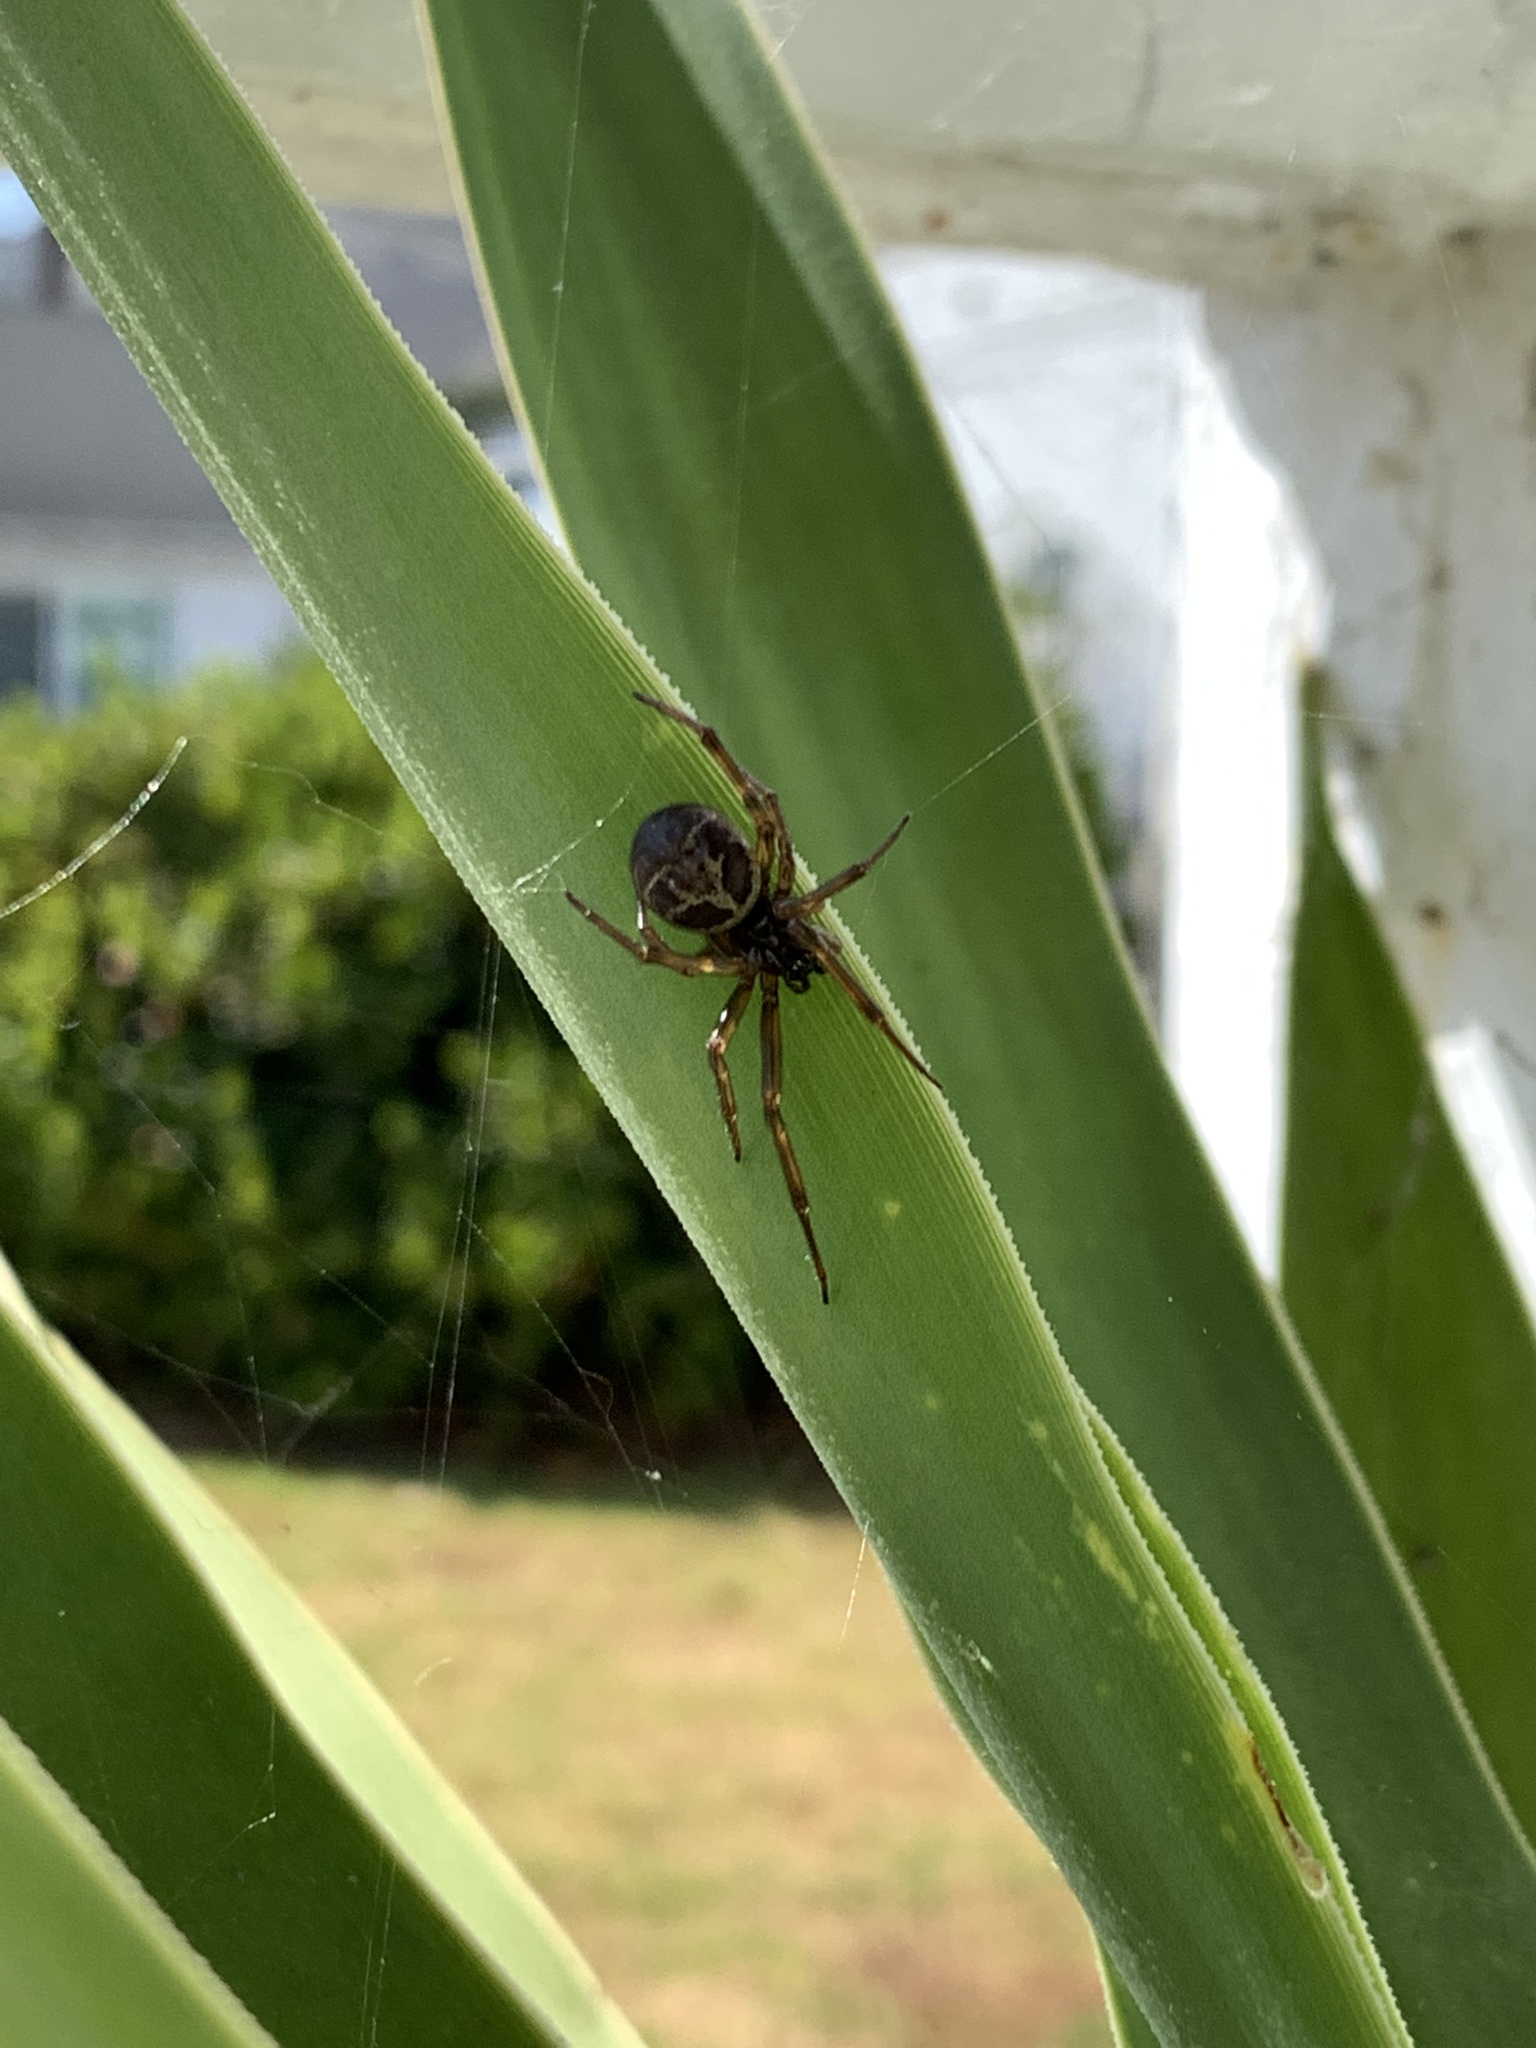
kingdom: Animalia
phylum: Arthropoda
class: Arachnida
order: Araneae
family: Theridiidae
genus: Steatoda
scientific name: Steatoda nobilis
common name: Cobweb weaver
